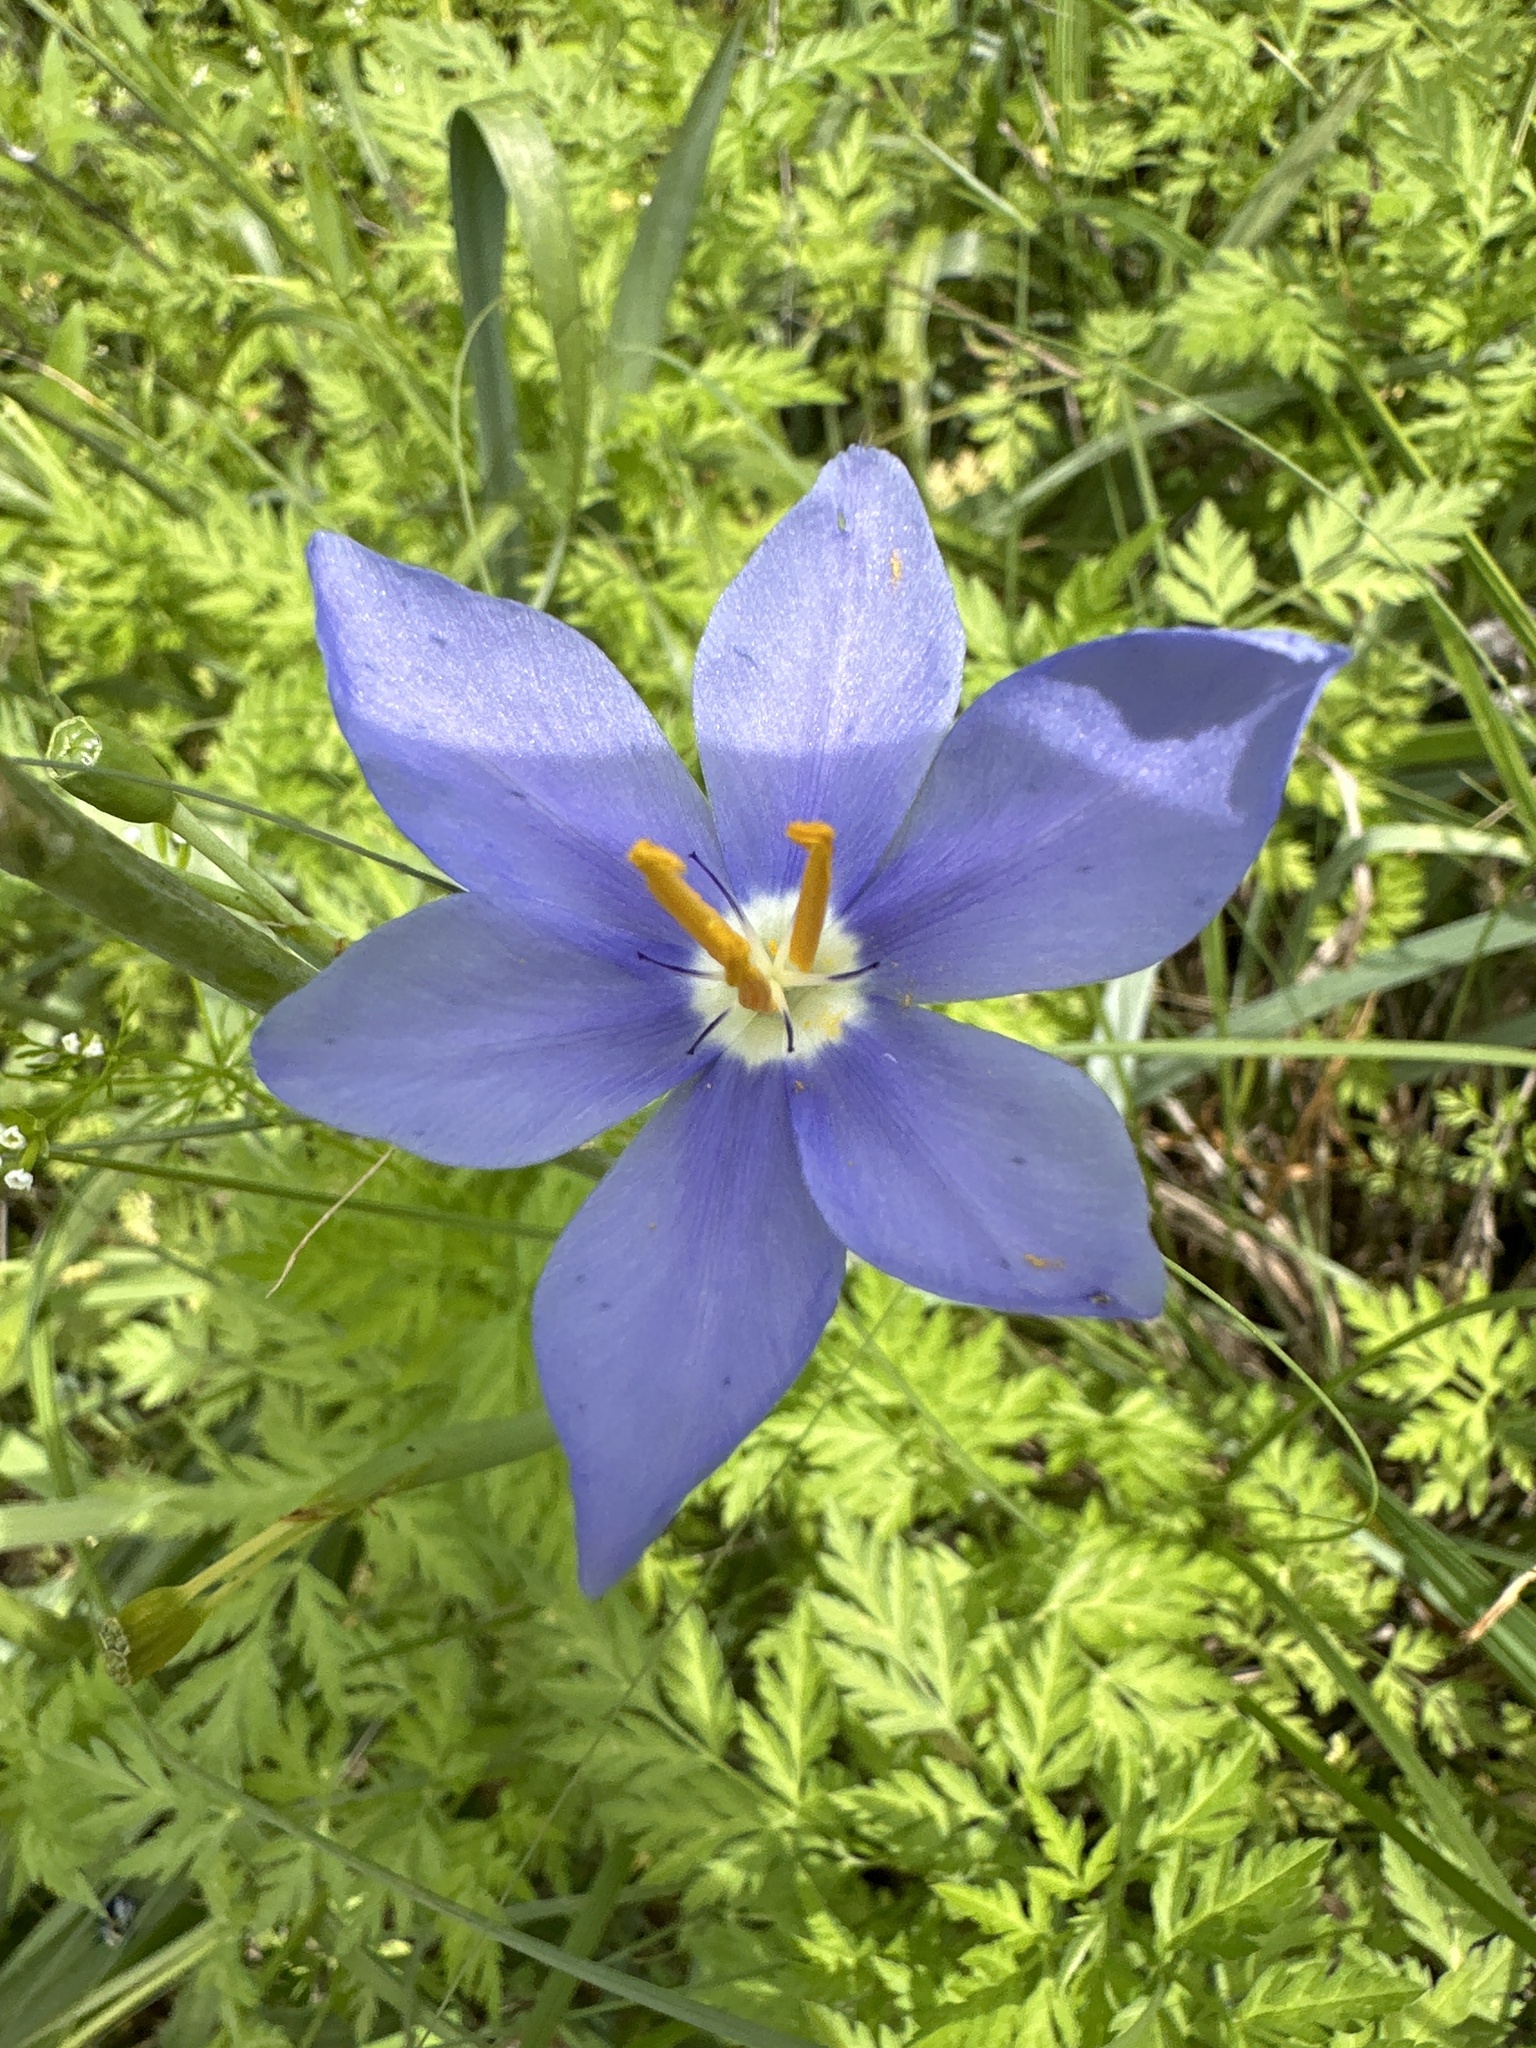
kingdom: Plantae
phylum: Tracheophyta
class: Liliopsida
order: Asparagales
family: Iridaceae
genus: Nemastylis
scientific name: Nemastylis geminiflora
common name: Prairie celestial
